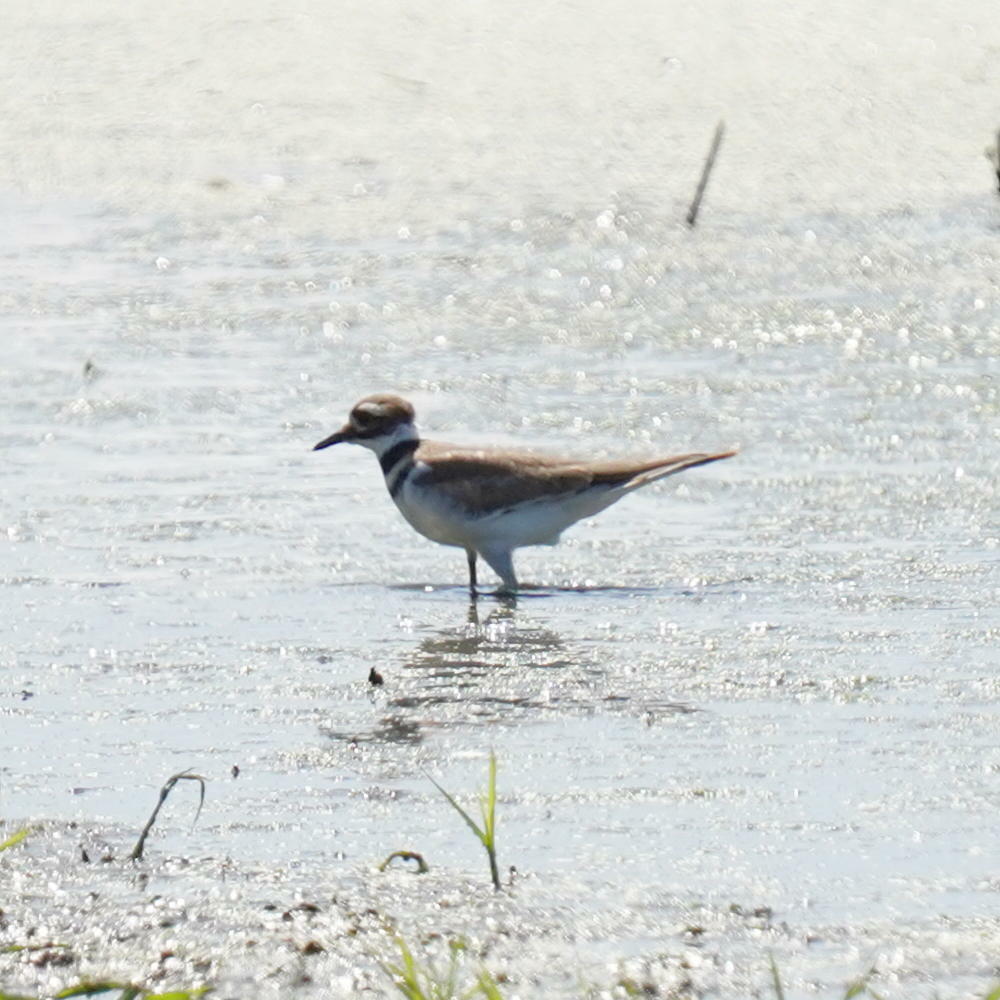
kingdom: Animalia
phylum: Chordata
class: Aves
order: Charadriiformes
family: Charadriidae
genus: Charadrius
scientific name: Charadrius vociferus
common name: Killdeer
